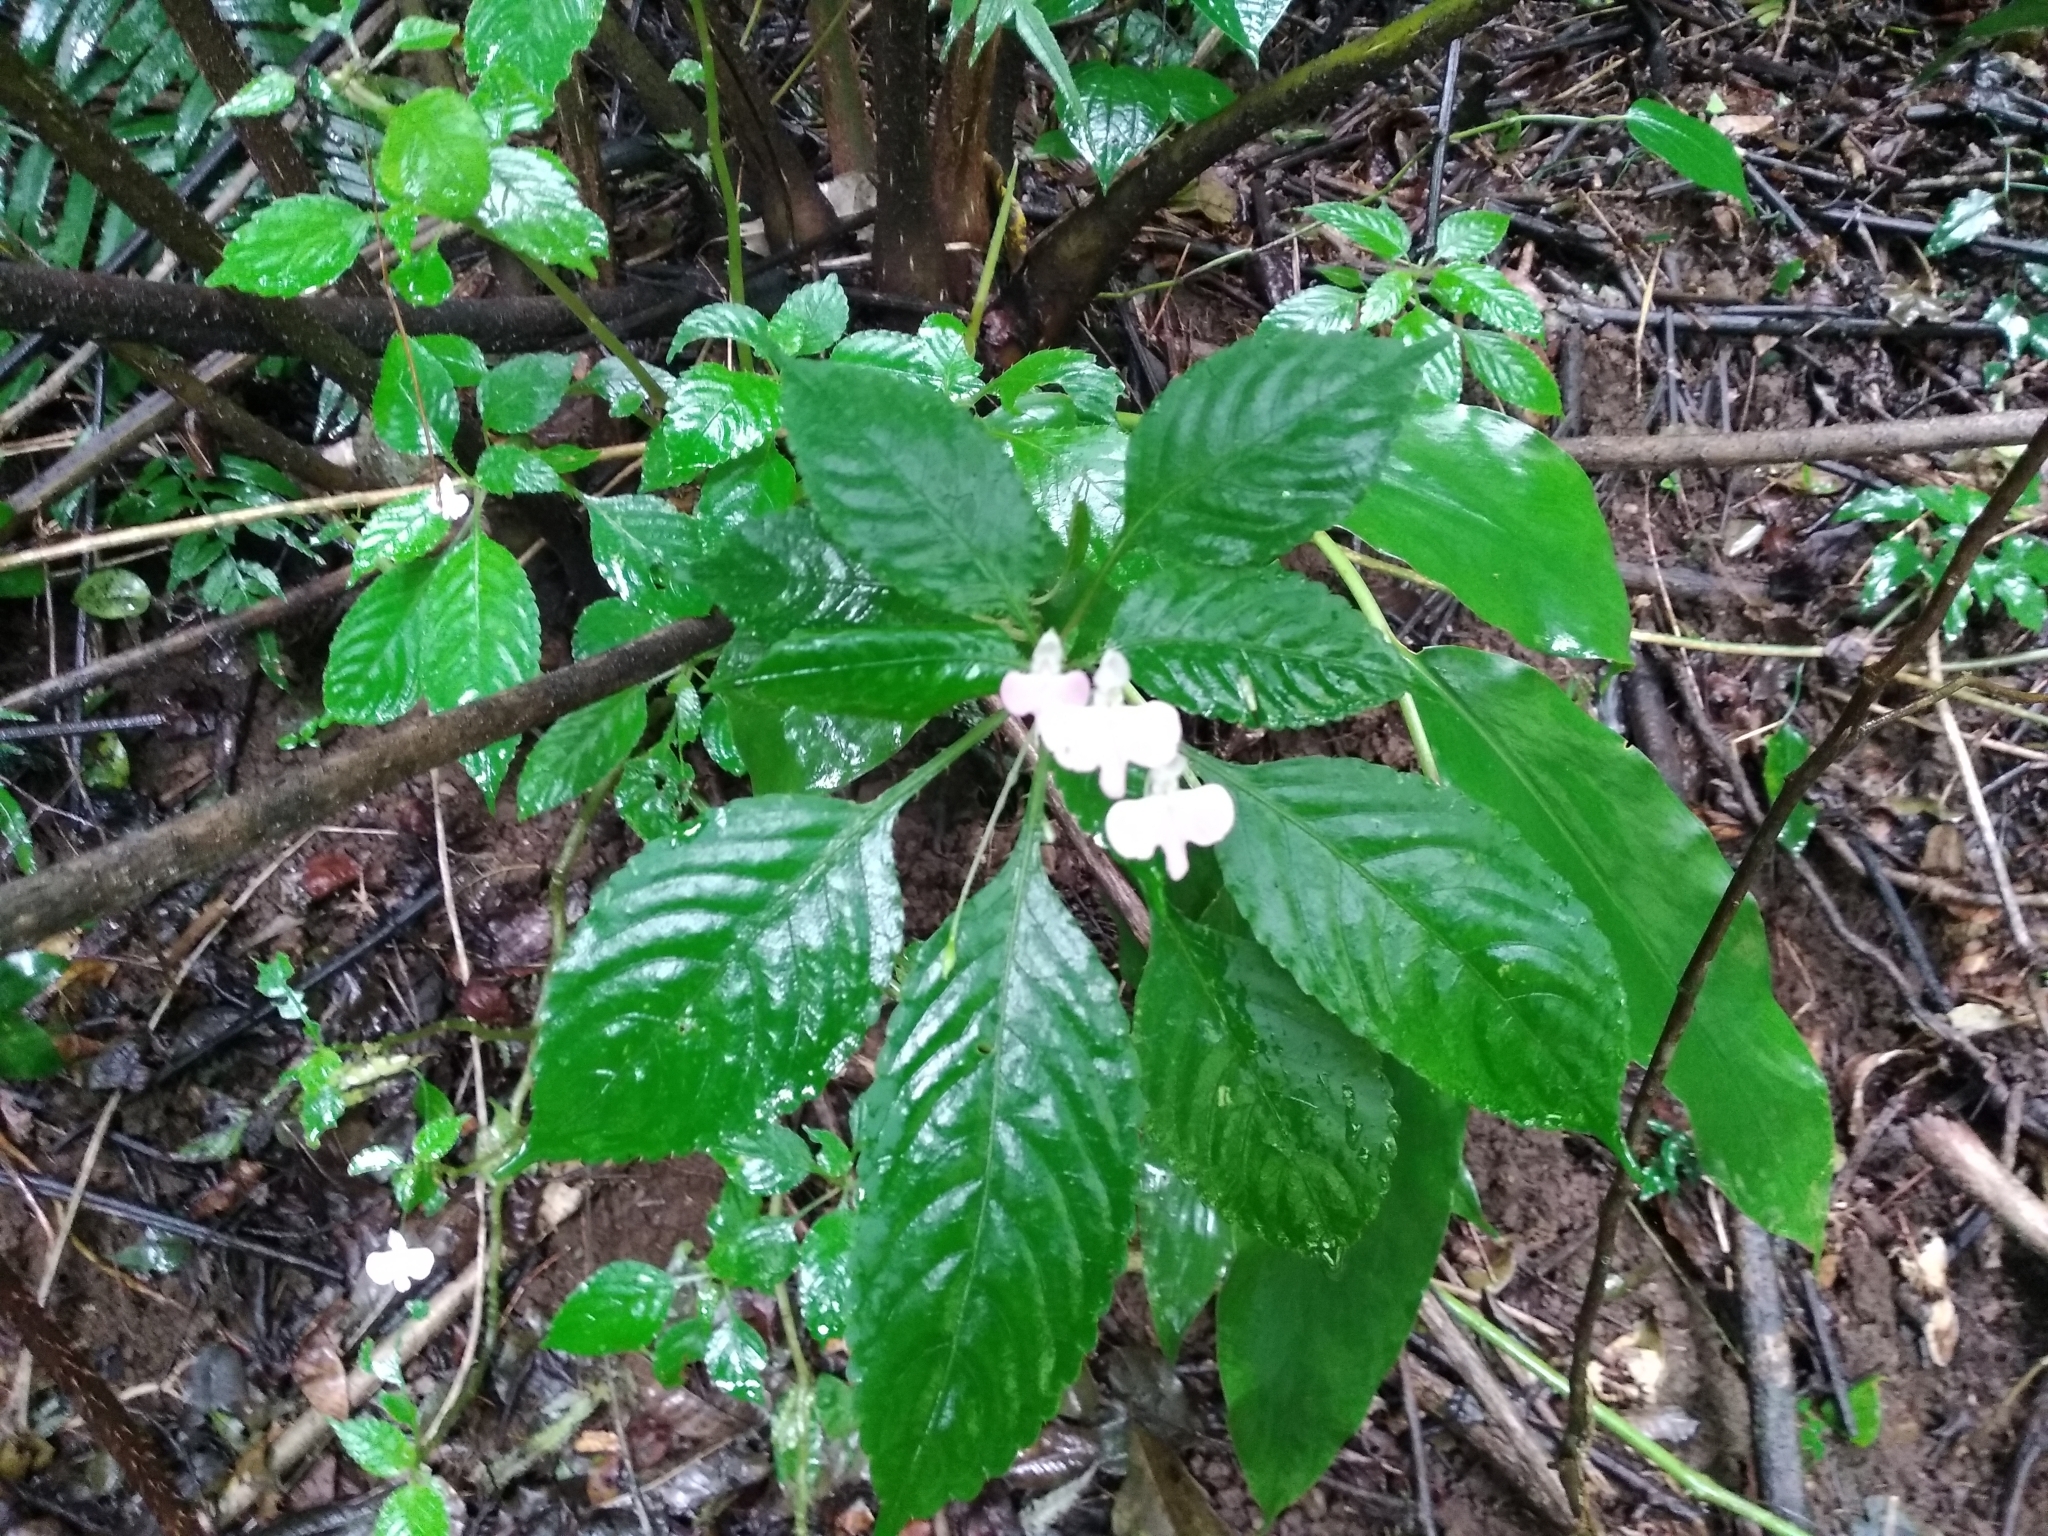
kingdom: Plantae
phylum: Tracheophyta
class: Magnoliopsida
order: Ericales
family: Balsaminaceae
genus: Impatiens
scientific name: Impatiens hochstetteri
